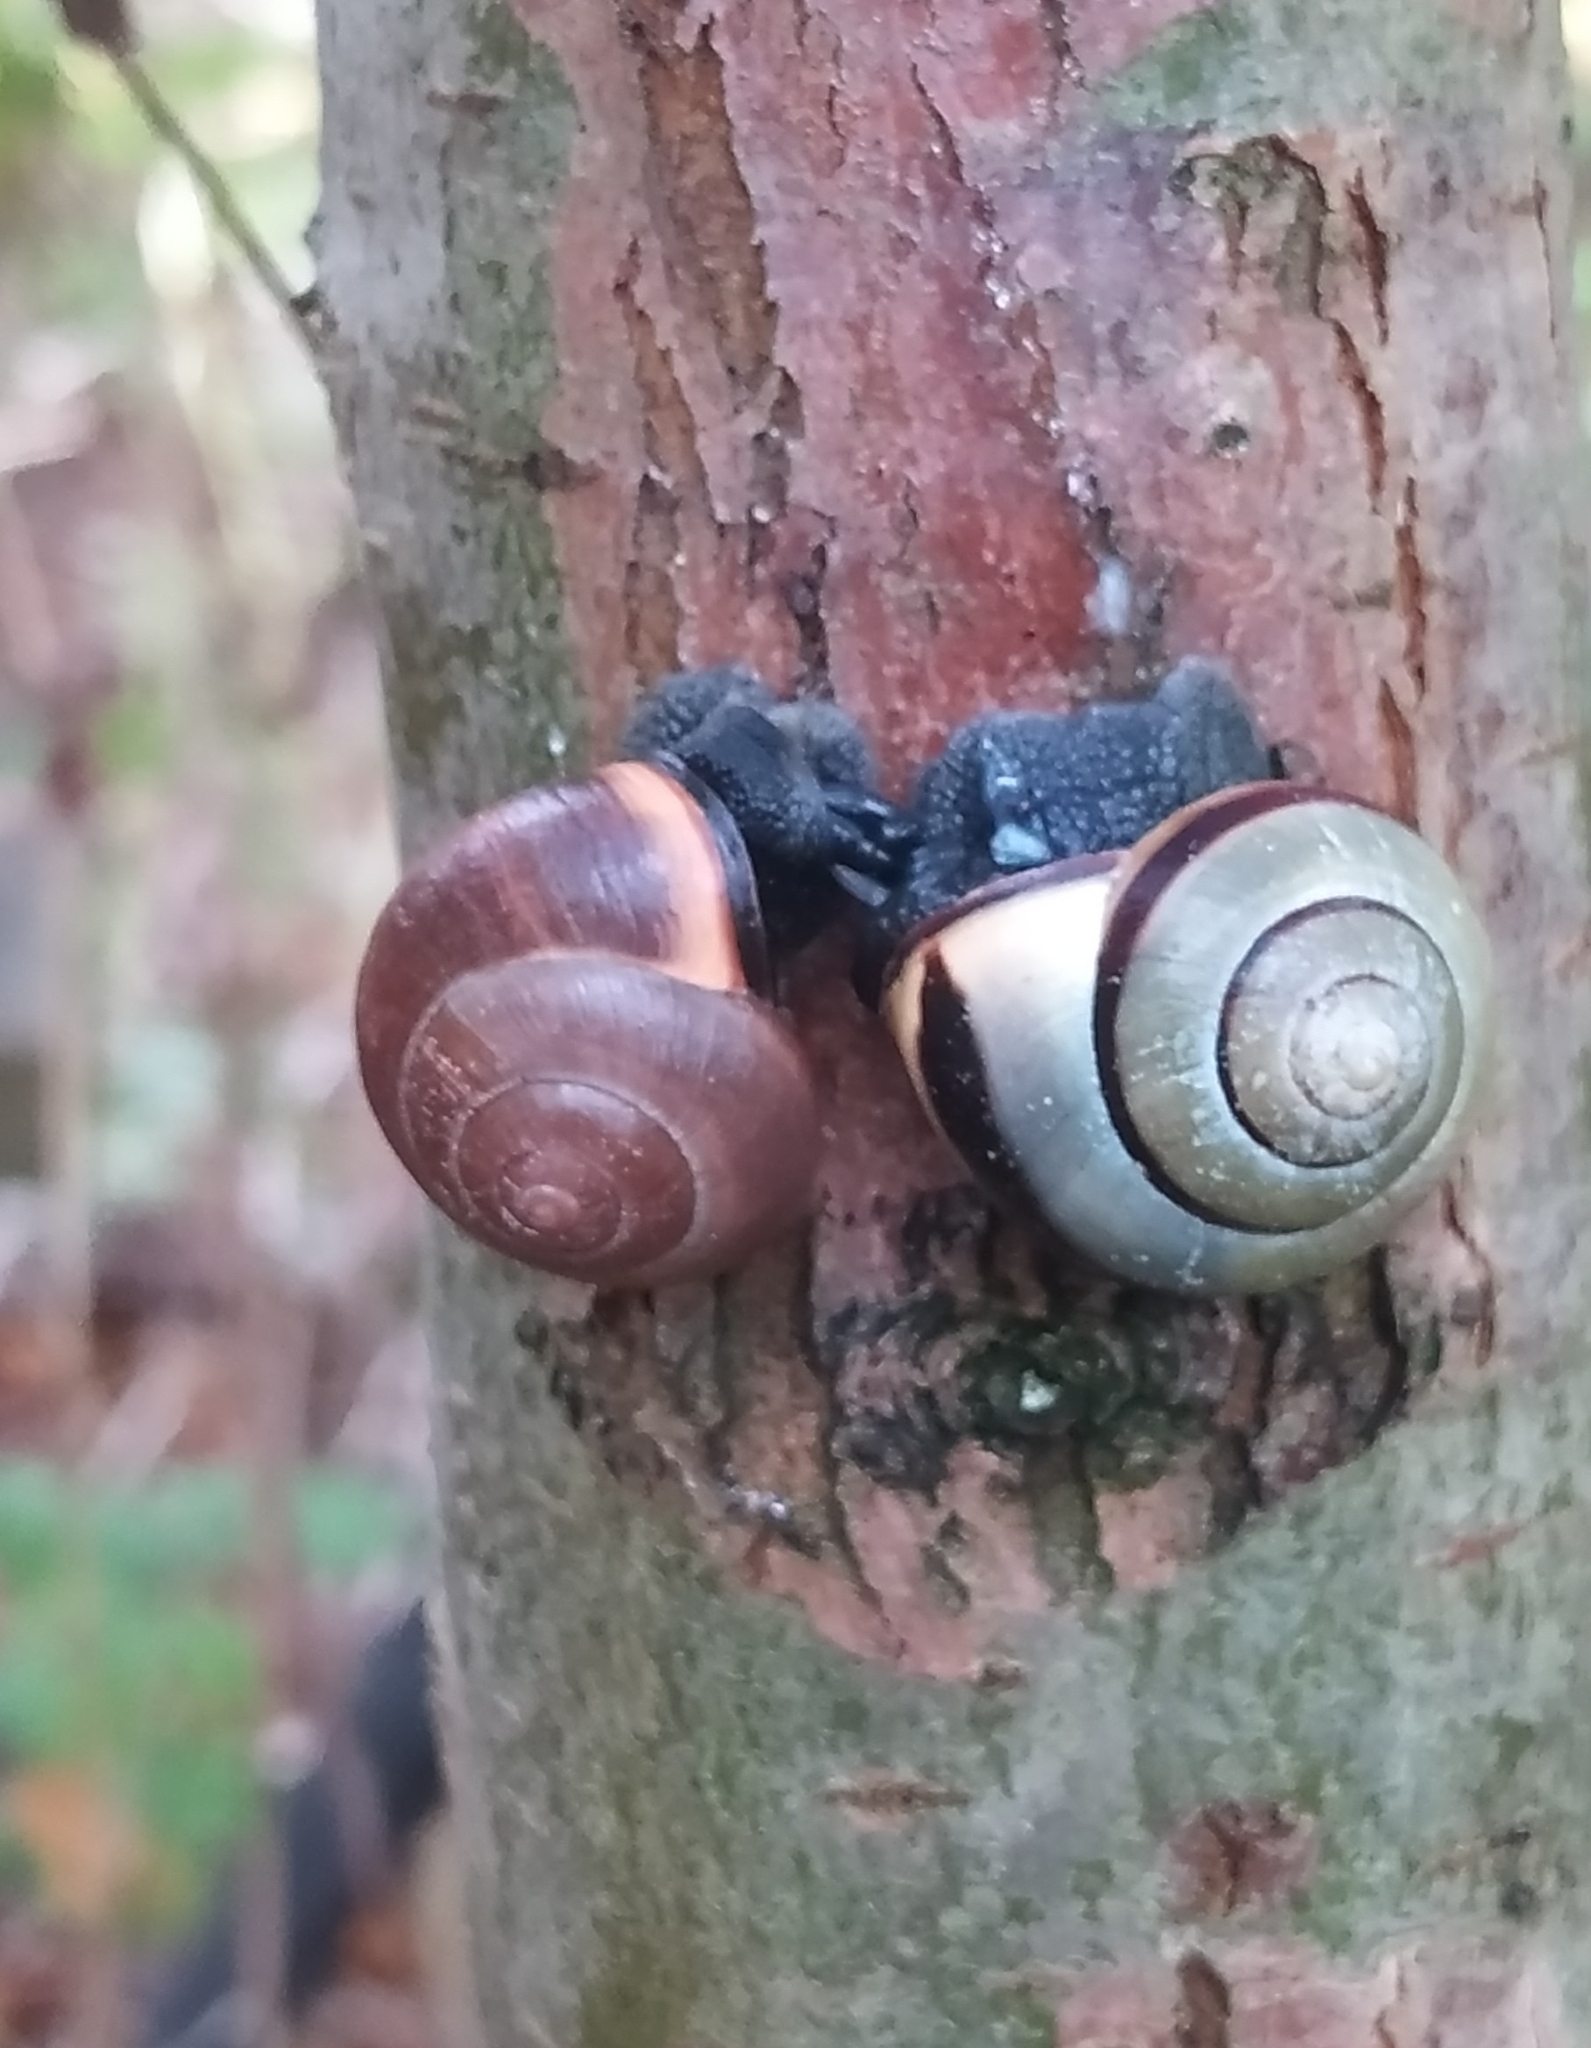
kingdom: Animalia
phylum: Mollusca
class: Gastropoda
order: Stylommatophora
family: Helicidae
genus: Cepaea
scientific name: Cepaea nemoralis
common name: Grovesnail
